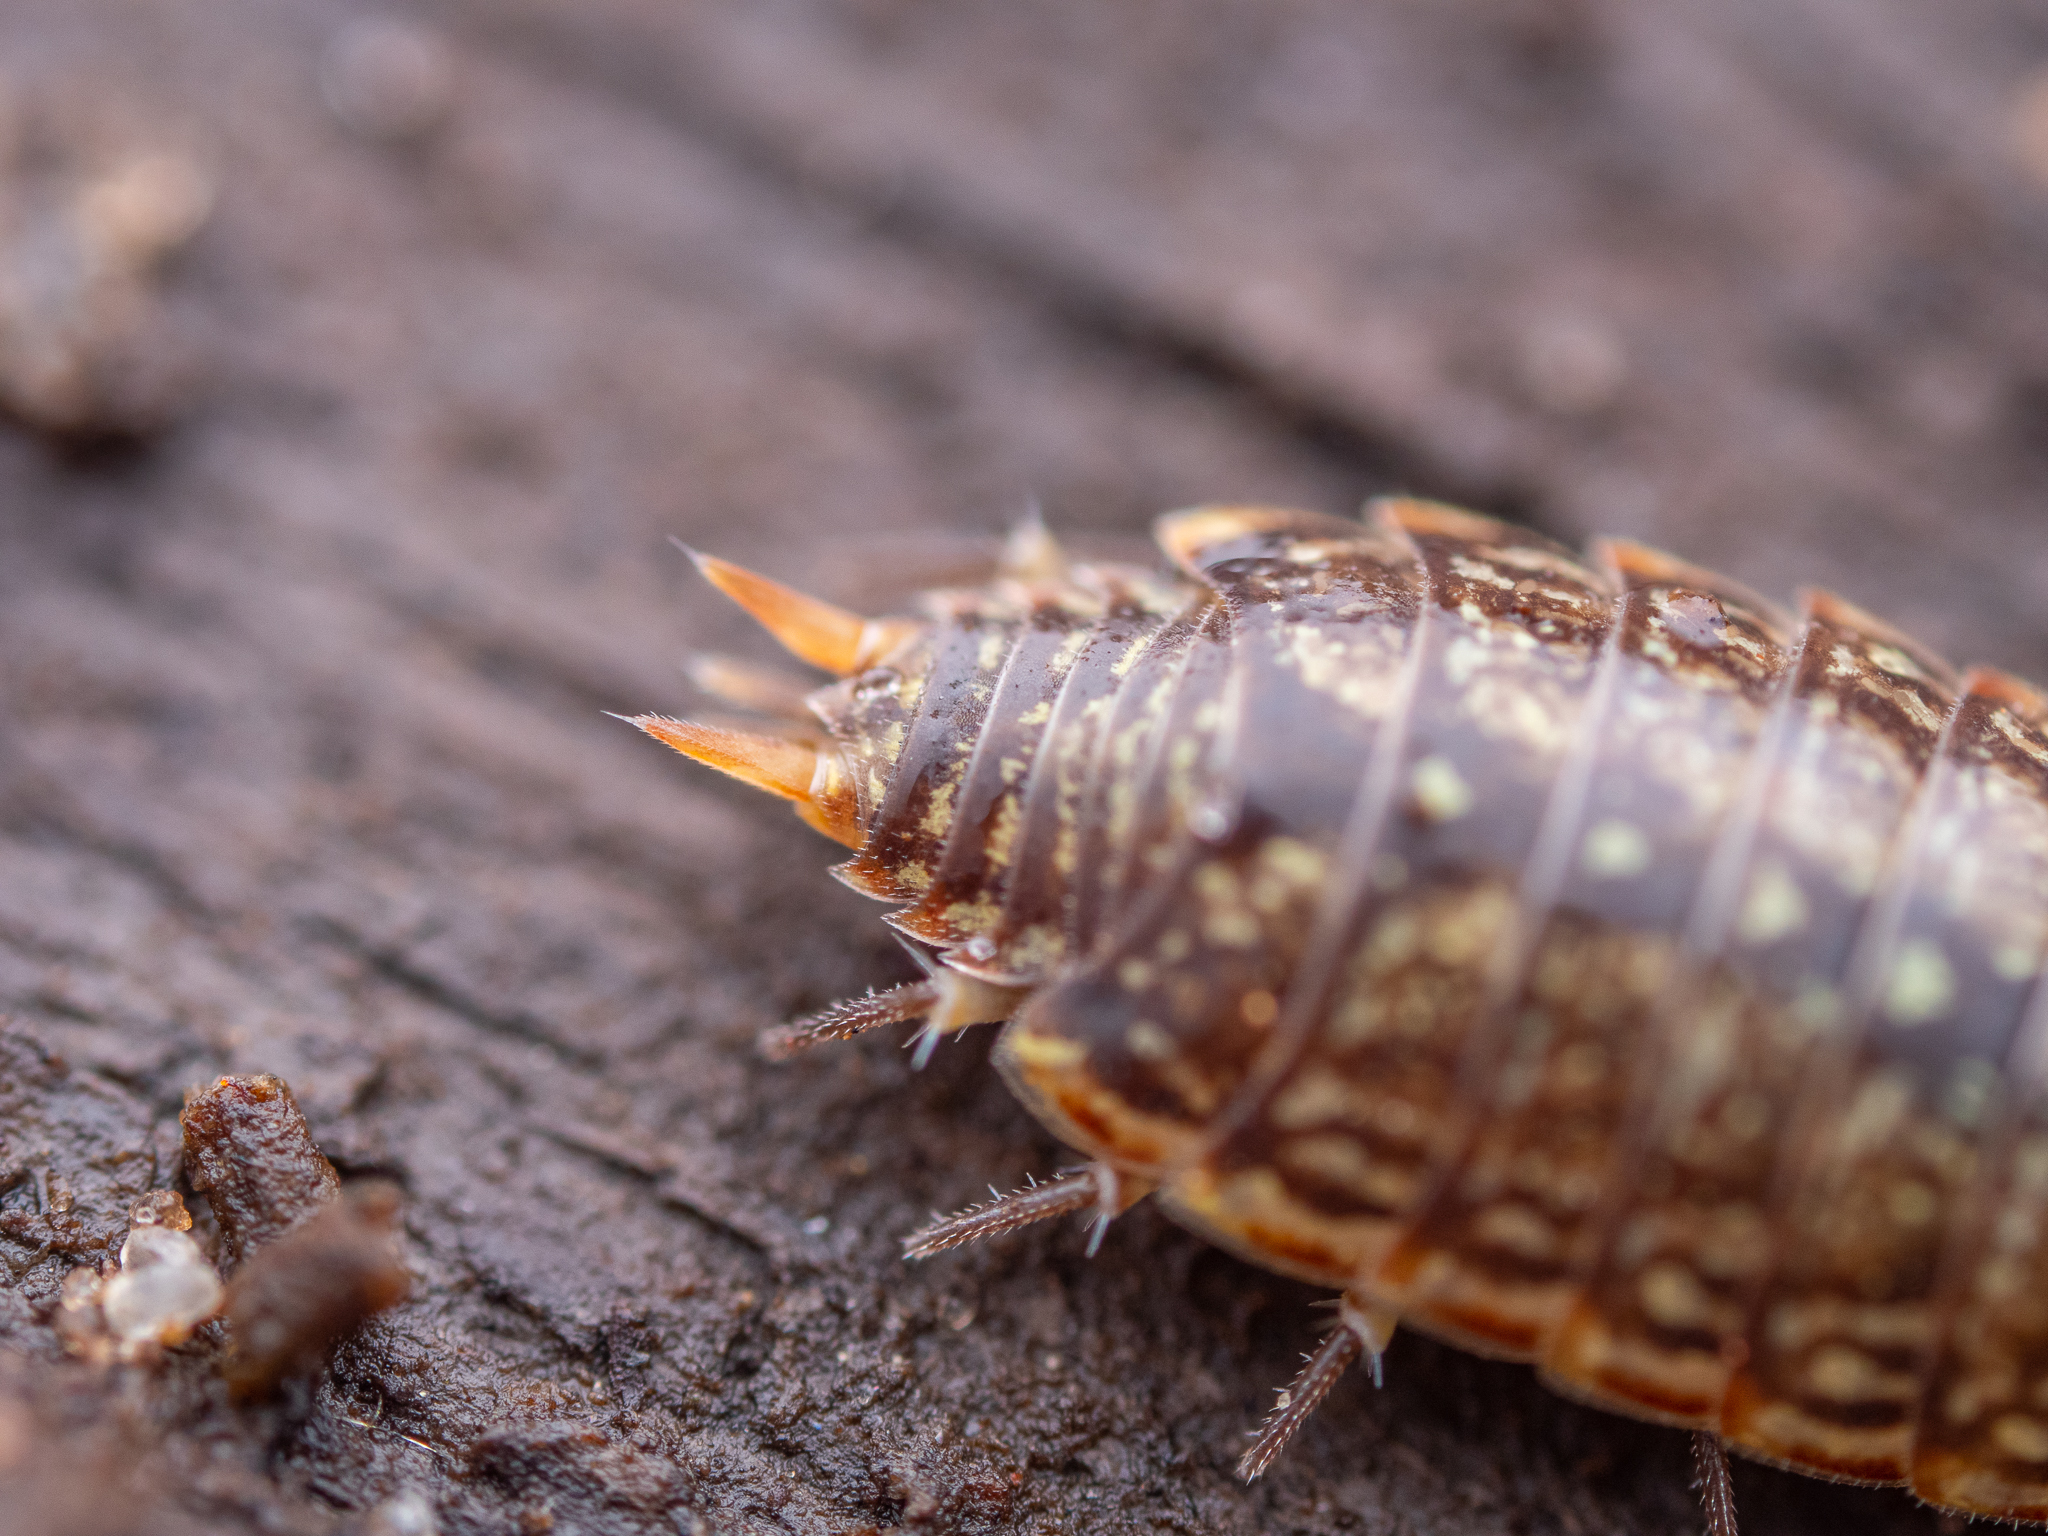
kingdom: Animalia
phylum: Arthropoda
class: Malacostraca
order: Isopoda
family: Philosciidae
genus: Philoscia
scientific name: Philoscia muscorum
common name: Common striped woodlouse
